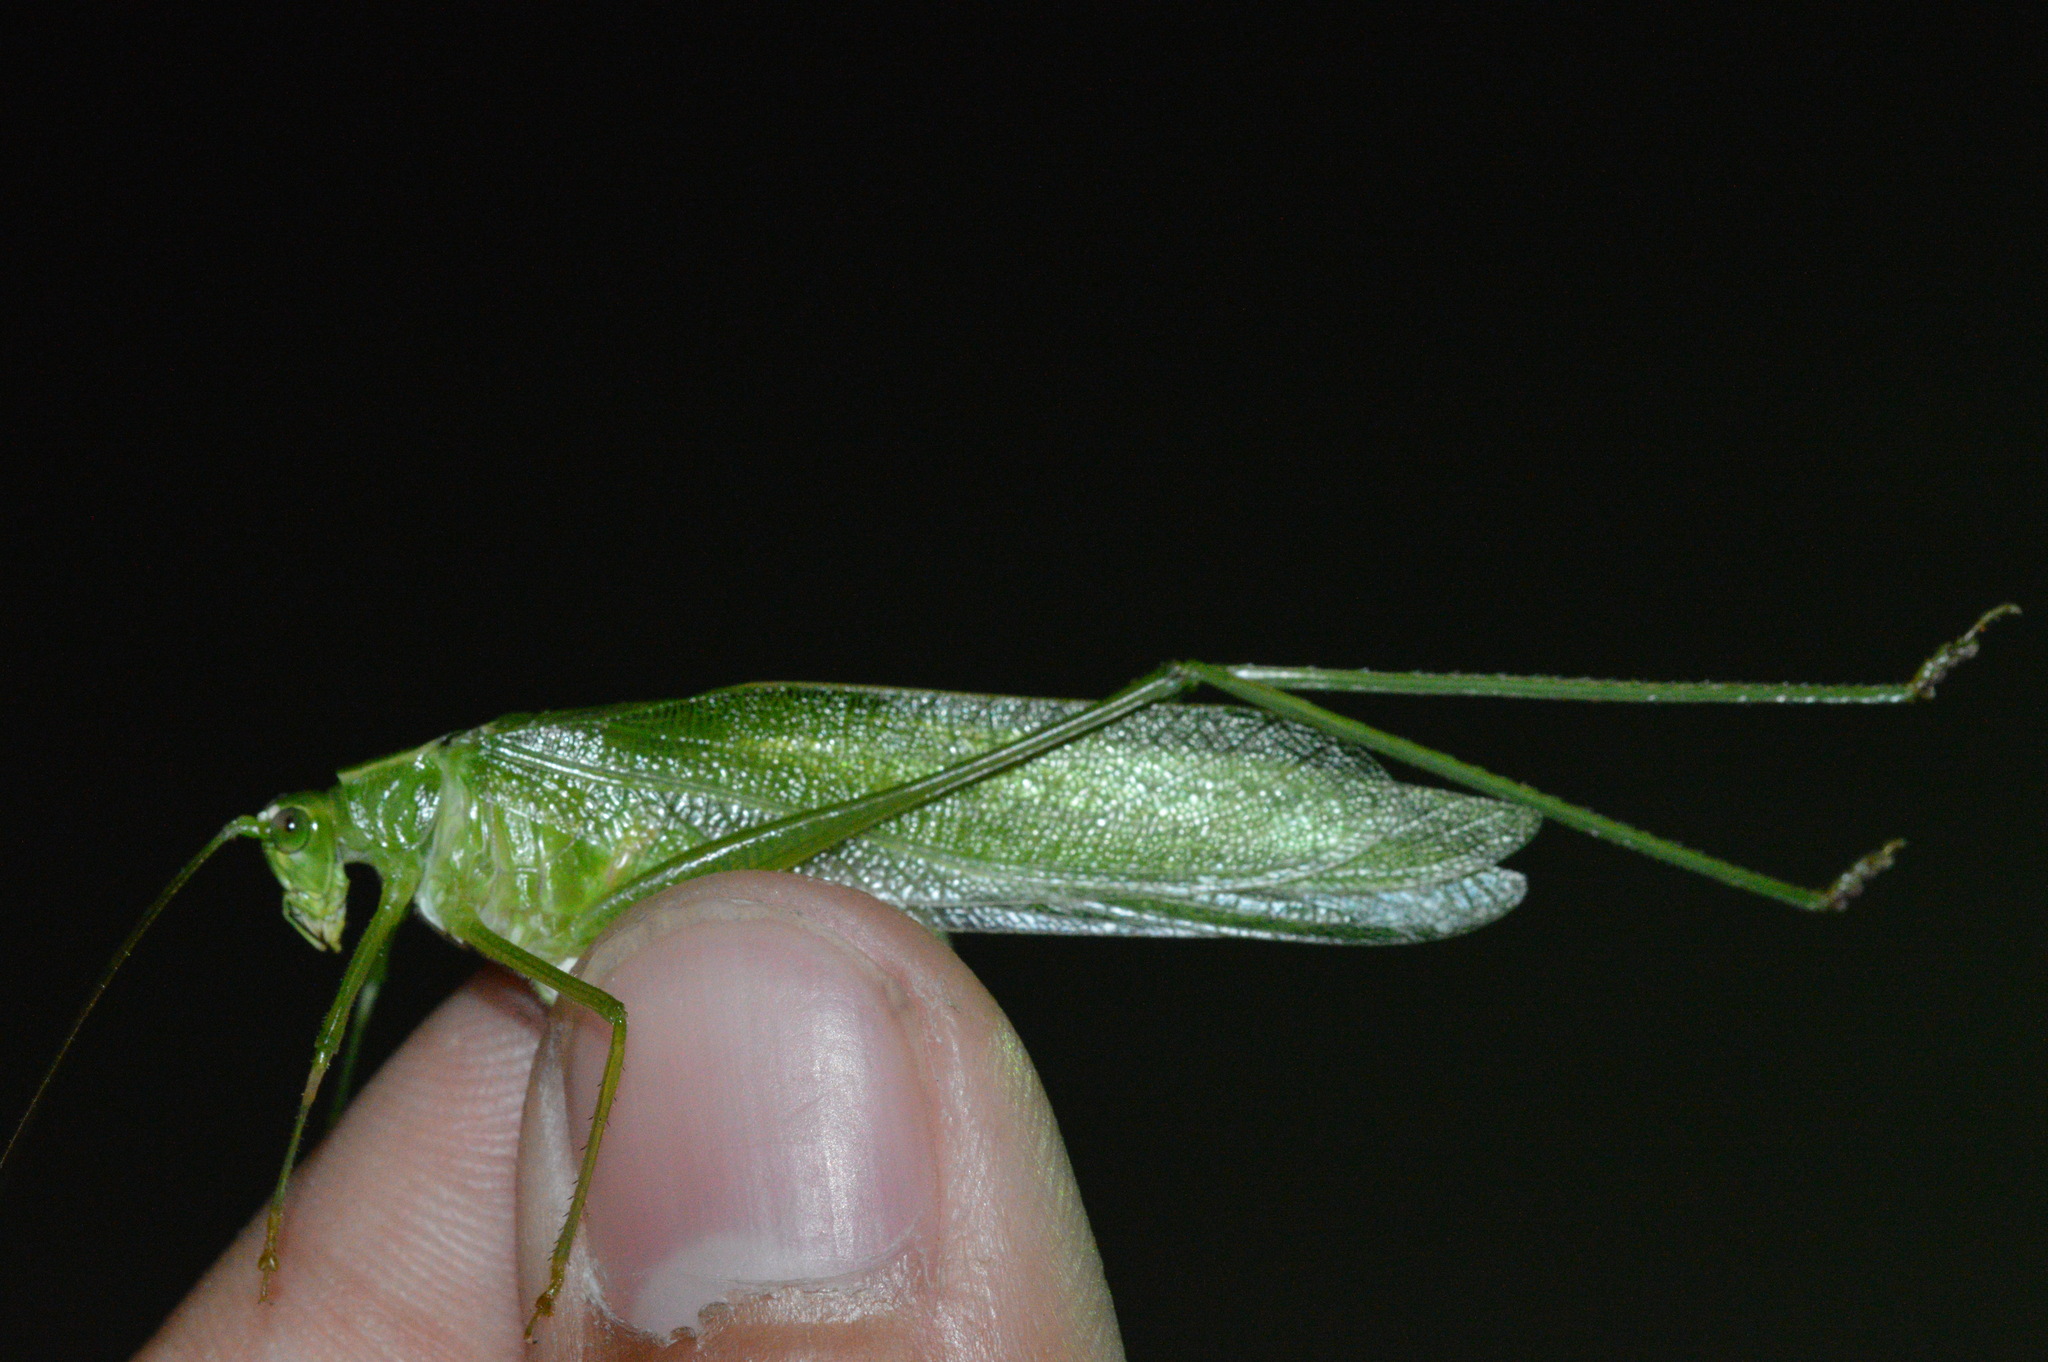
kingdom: Animalia
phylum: Arthropoda
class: Insecta
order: Orthoptera
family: Tettigoniidae
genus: Scudderia
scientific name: Scudderia furcata
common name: Fork-tailed bush katydid
